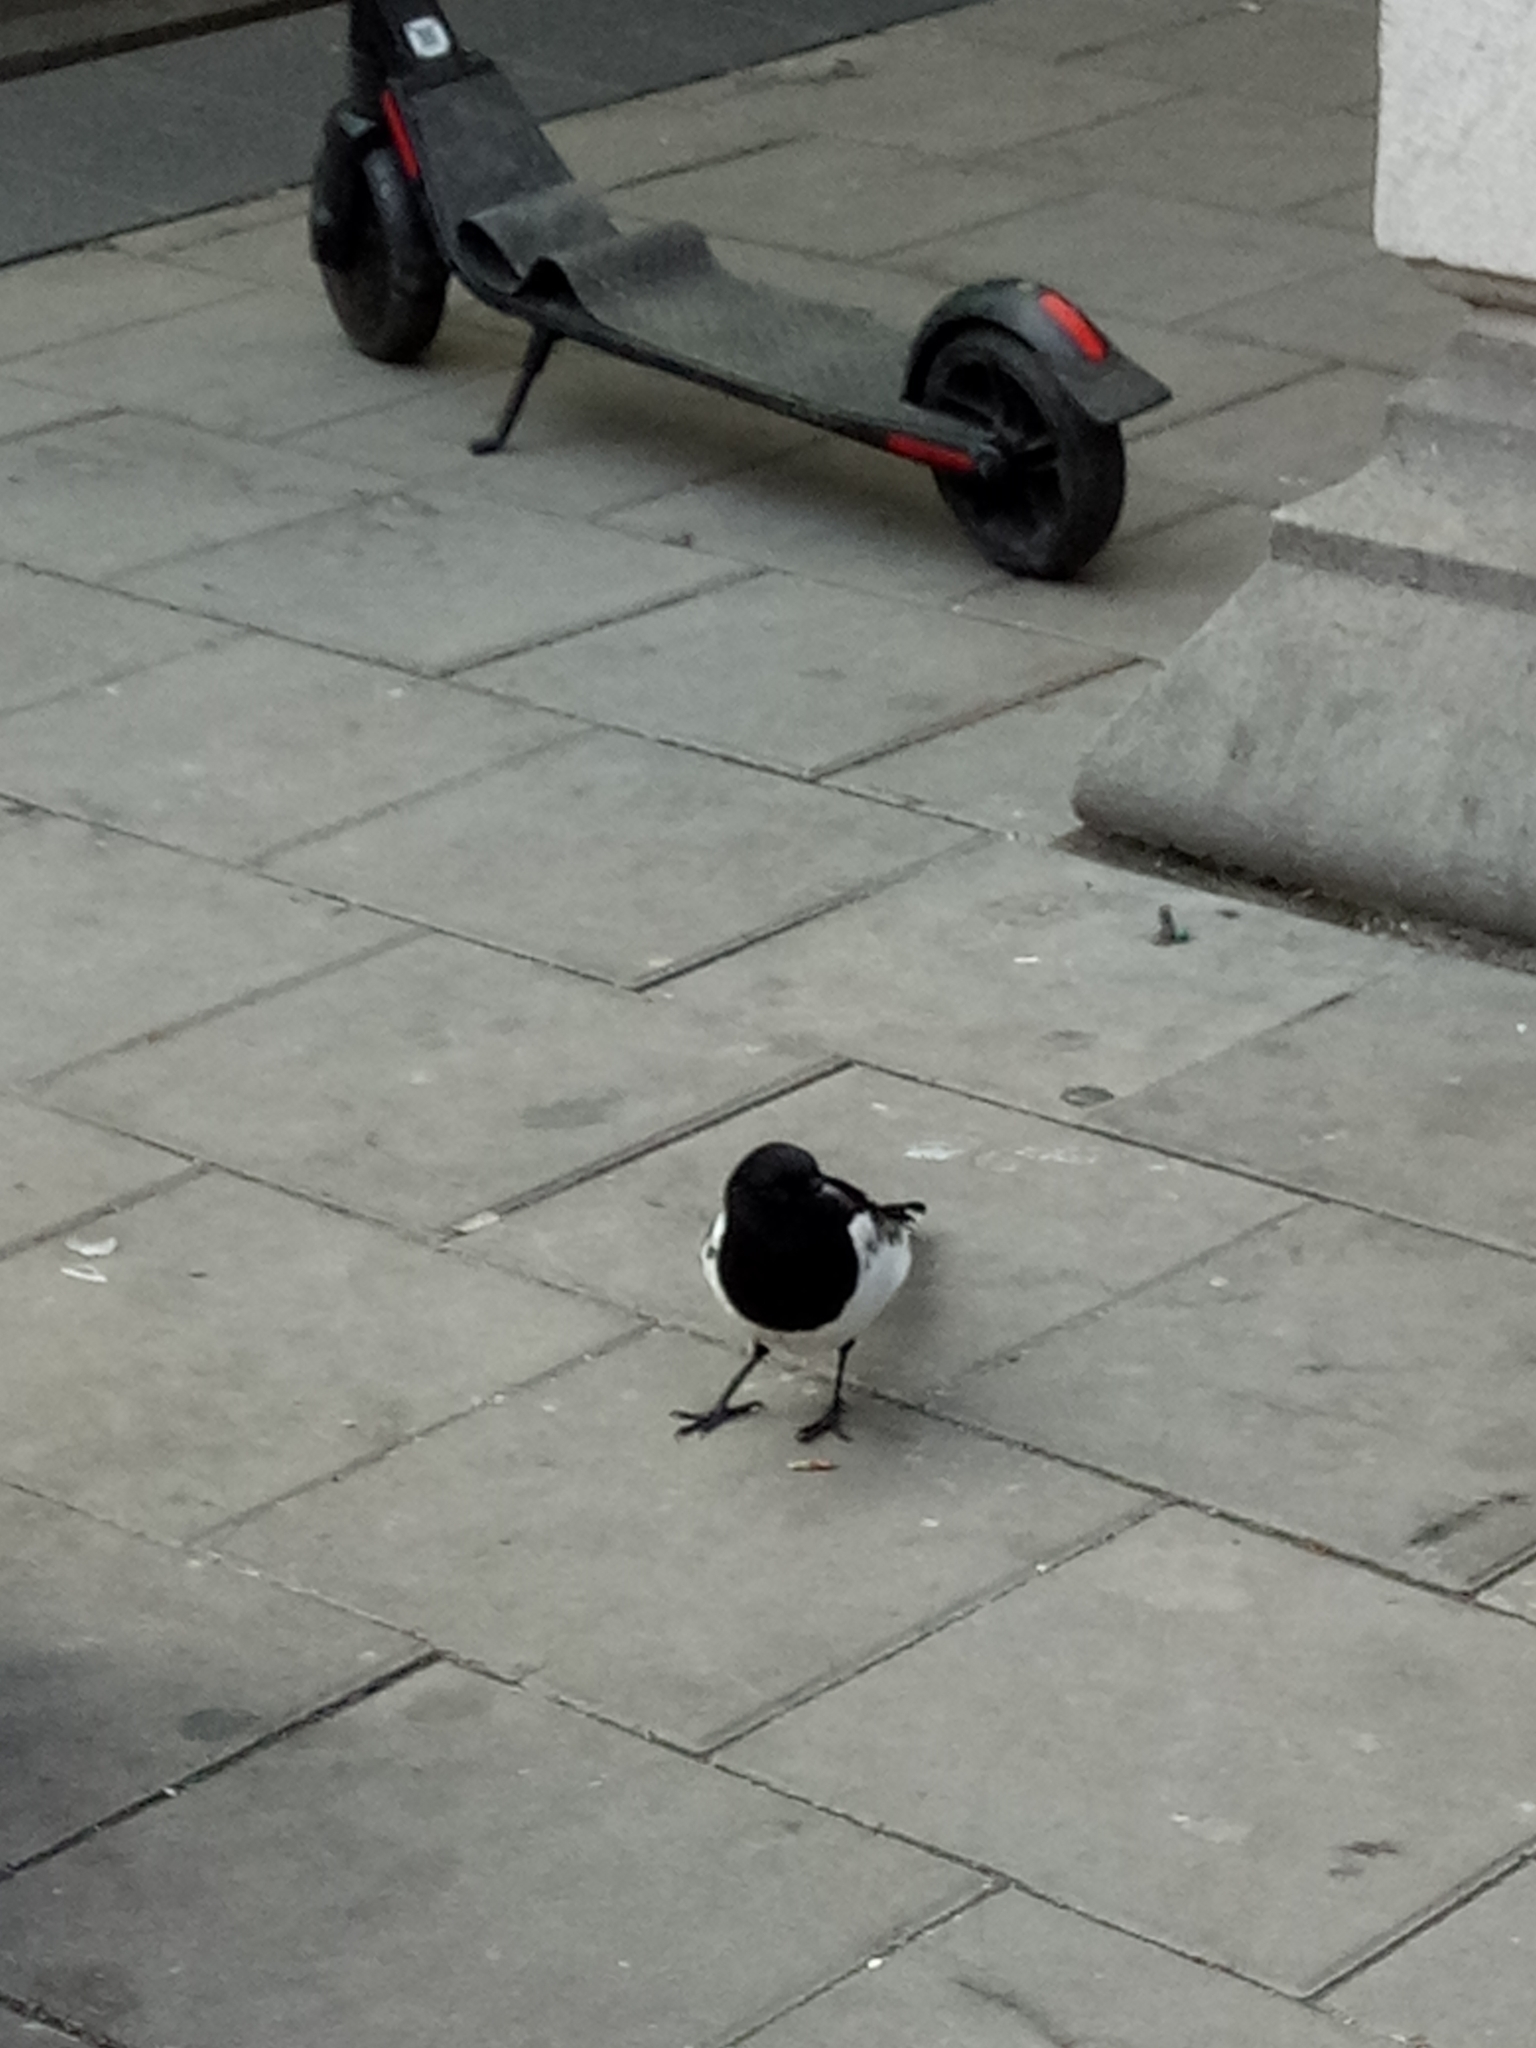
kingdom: Animalia
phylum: Chordata
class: Aves
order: Passeriformes
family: Corvidae
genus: Pica
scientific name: Pica pica
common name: Eurasian magpie
